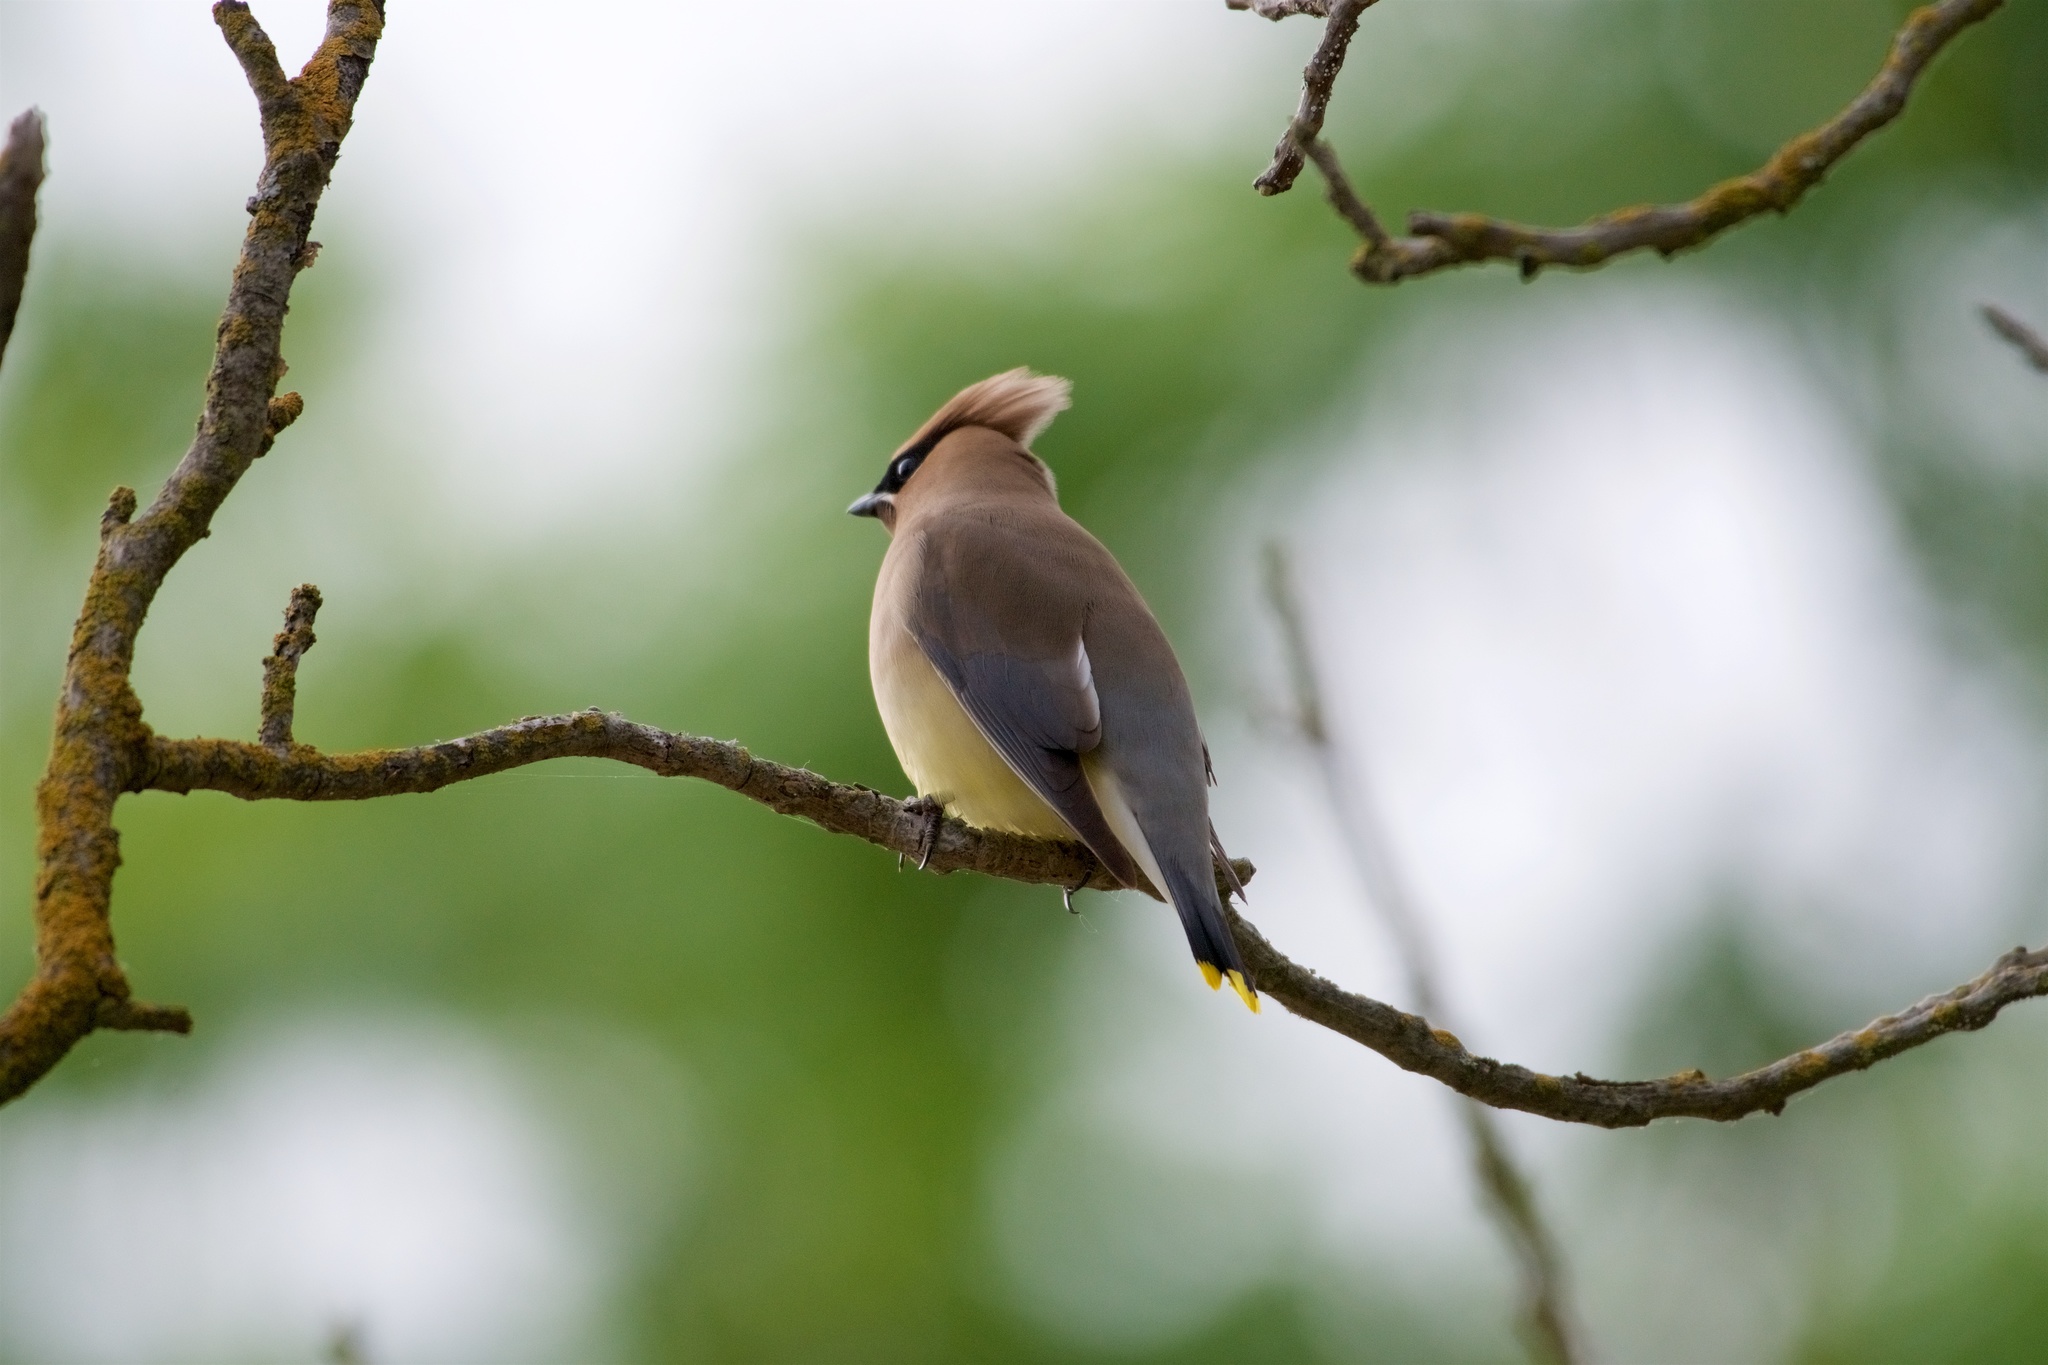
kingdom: Animalia
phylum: Chordata
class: Aves
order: Passeriformes
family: Bombycillidae
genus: Bombycilla
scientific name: Bombycilla cedrorum
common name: Cedar waxwing
